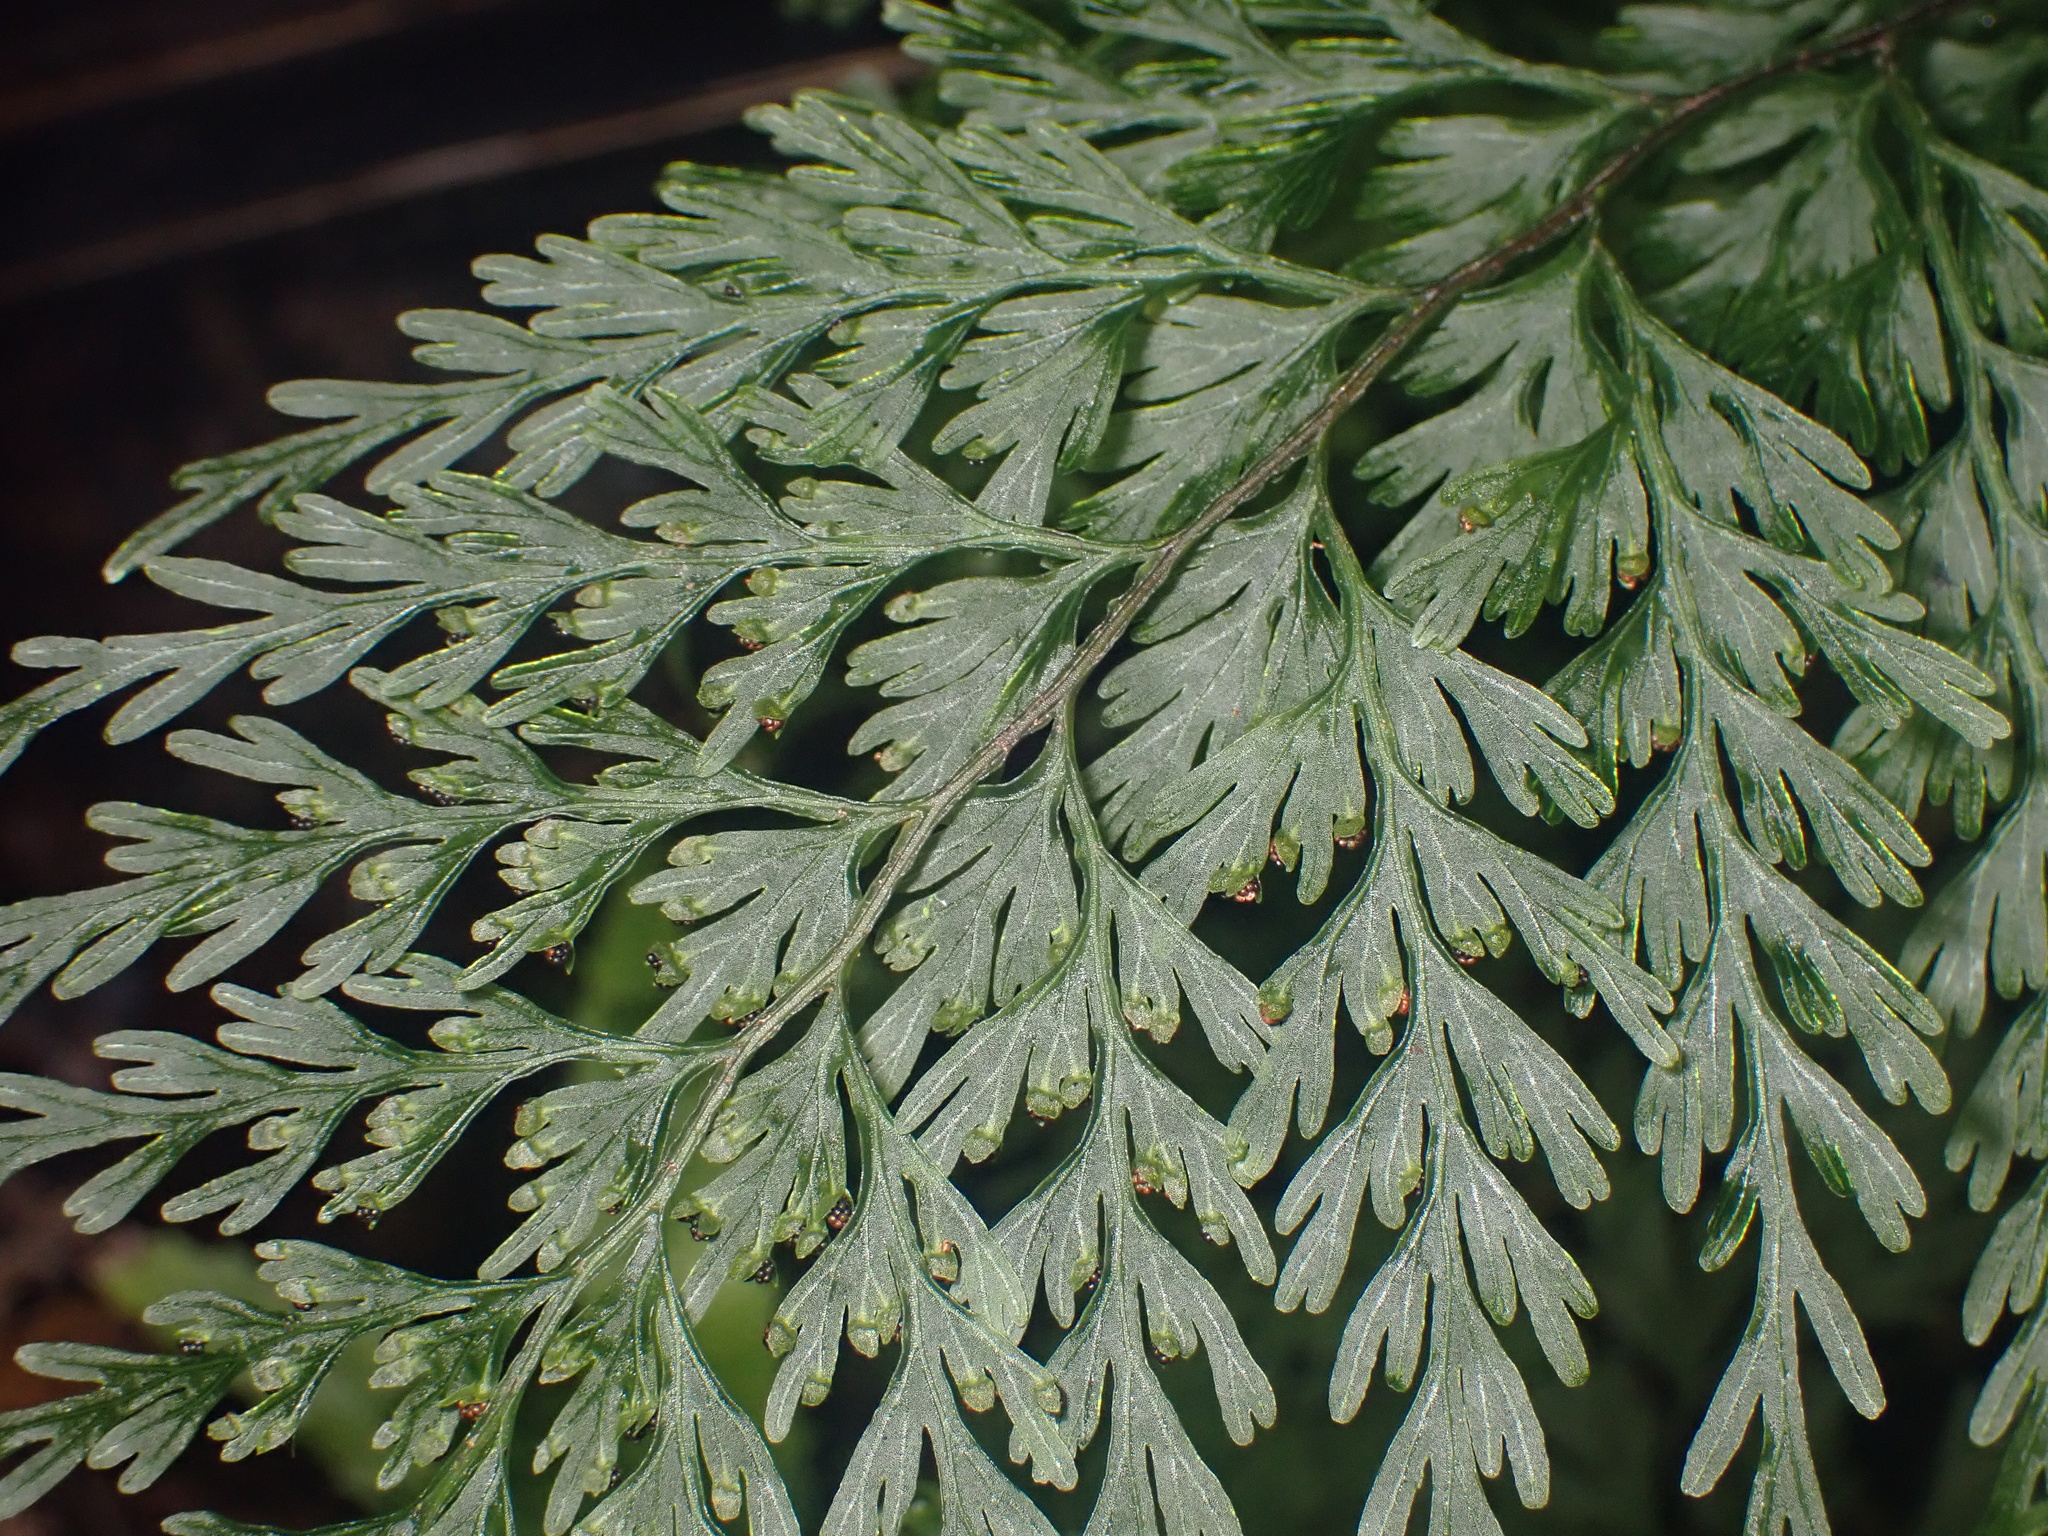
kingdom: Plantae
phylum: Tracheophyta
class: Polypodiopsida
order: Hymenophyllales
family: Hymenophyllaceae
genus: Hymenophyllum
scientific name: Hymenophyllum demissum
